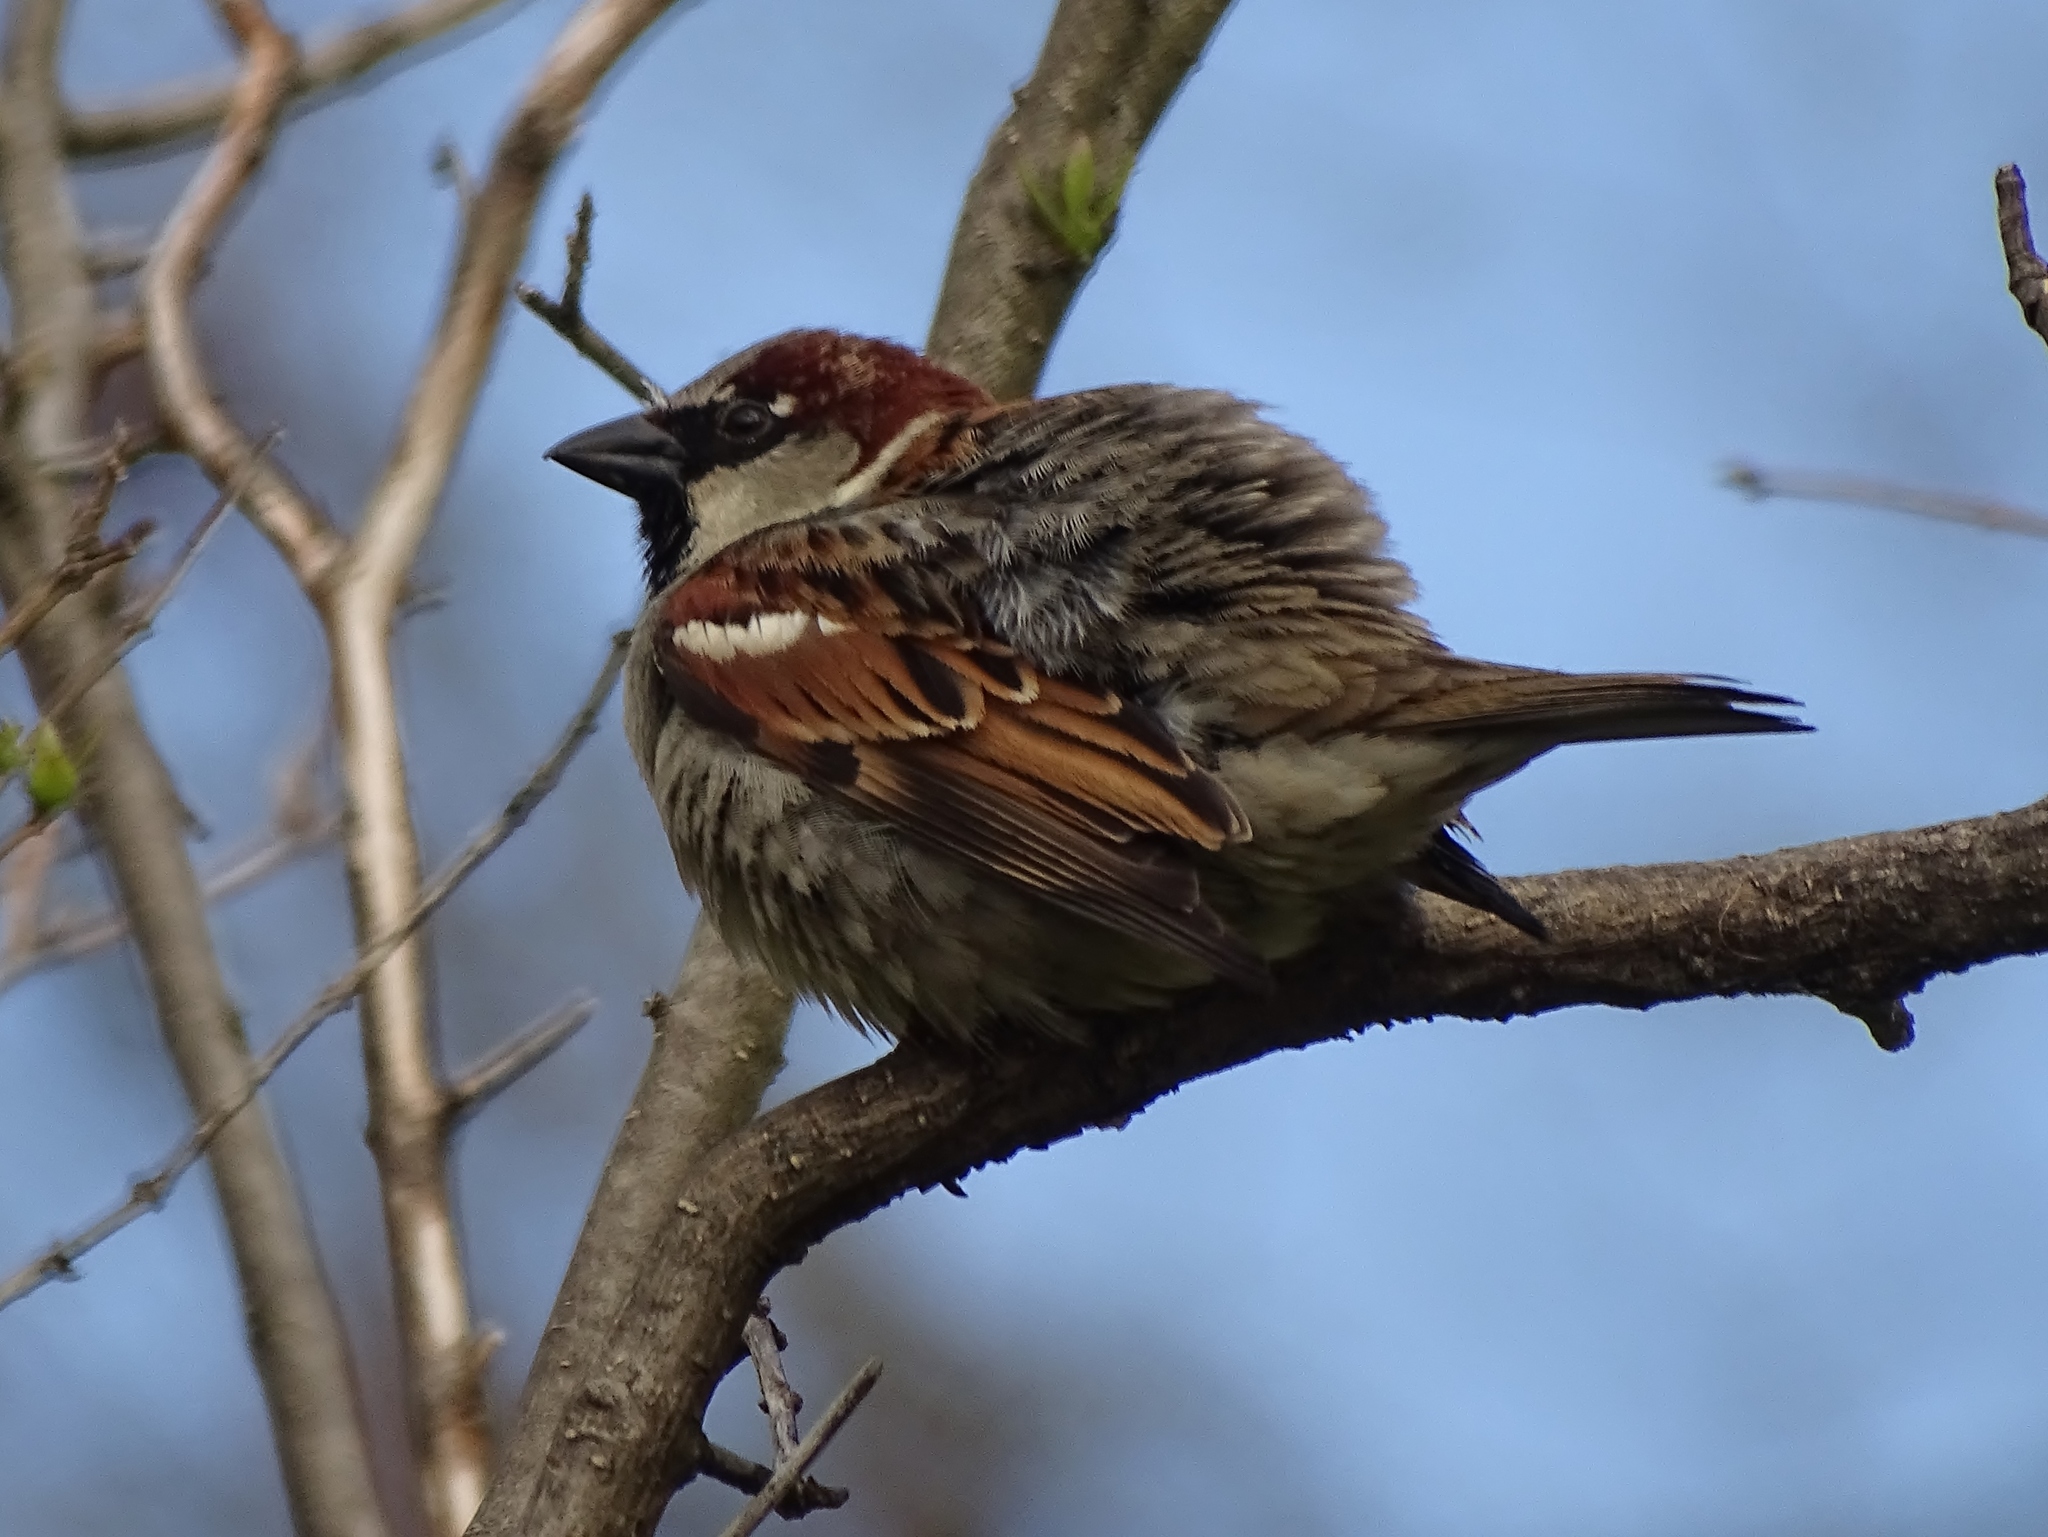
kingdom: Animalia
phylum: Chordata
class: Aves
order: Passeriformes
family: Passeridae
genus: Passer
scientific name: Passer domesticus
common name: House sparrow
